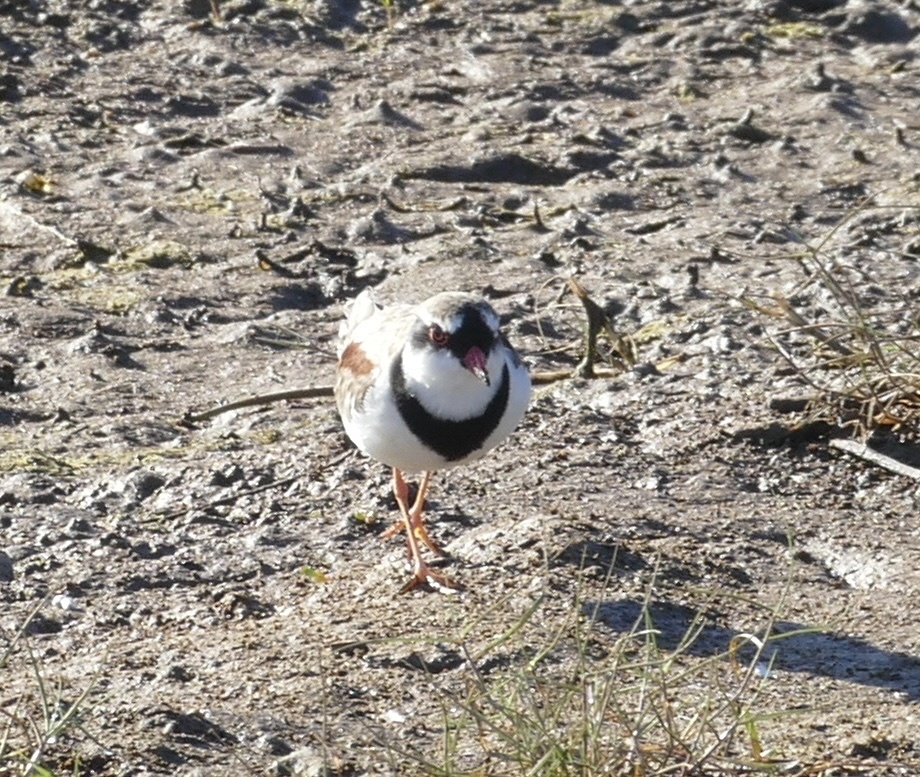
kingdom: Animalia
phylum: Chordata
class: Aves
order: Charadriiformes
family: Charadriidae
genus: Elseyornis
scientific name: Elseyornis melanops
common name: Black-fronted dotterel
